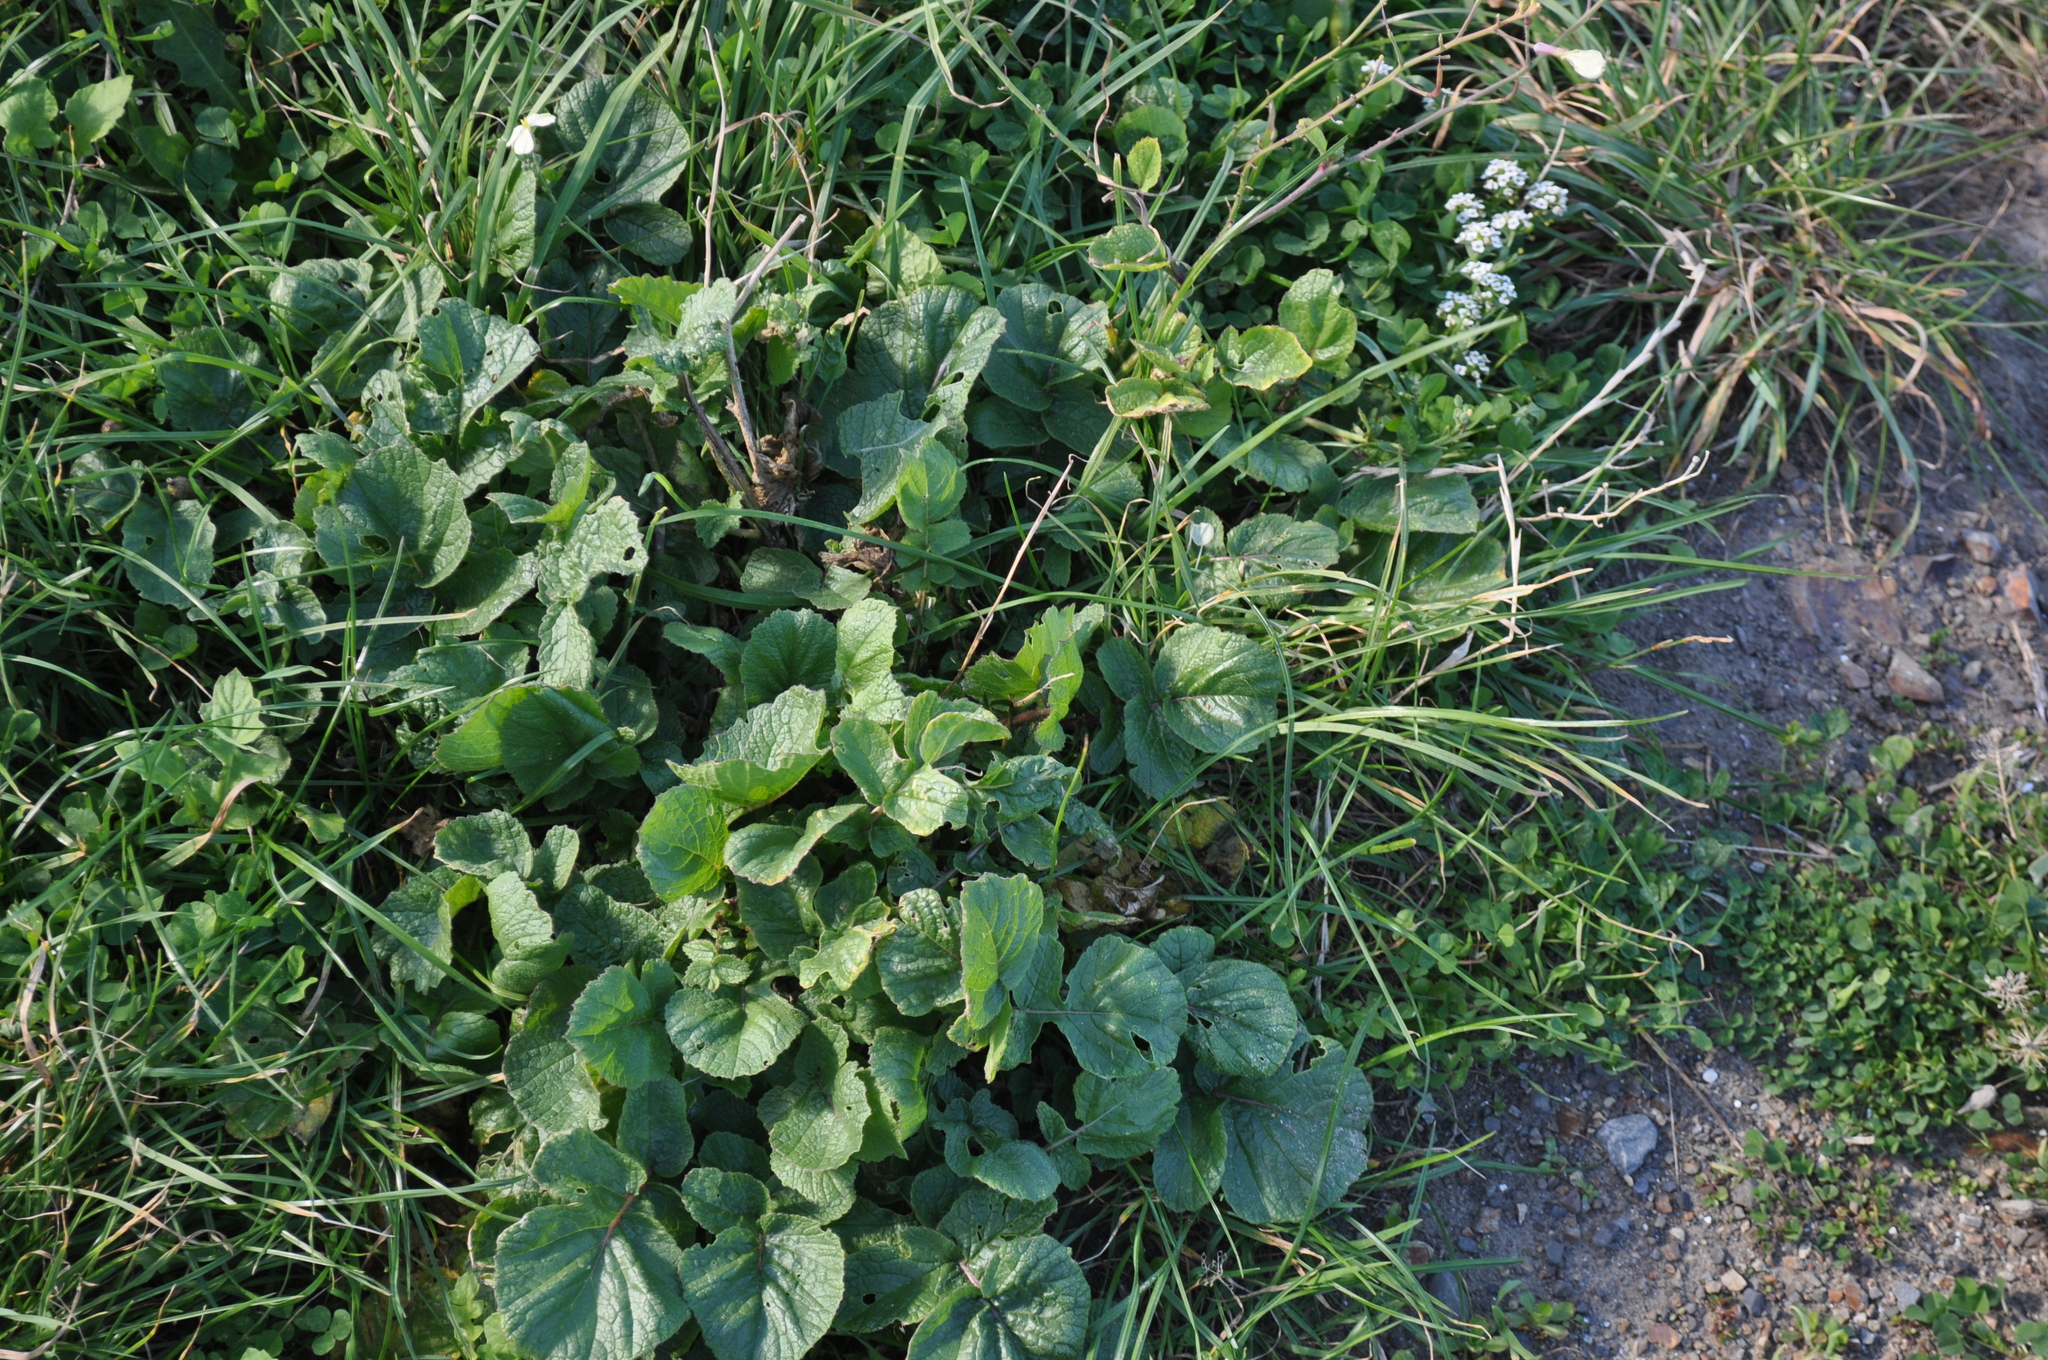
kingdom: Plantae
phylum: Tracheophyta
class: Magnoliopsida
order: Brassicales
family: Brassicaceae
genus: Raphanus
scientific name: Raphanus raphanistrum
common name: Wild radish
